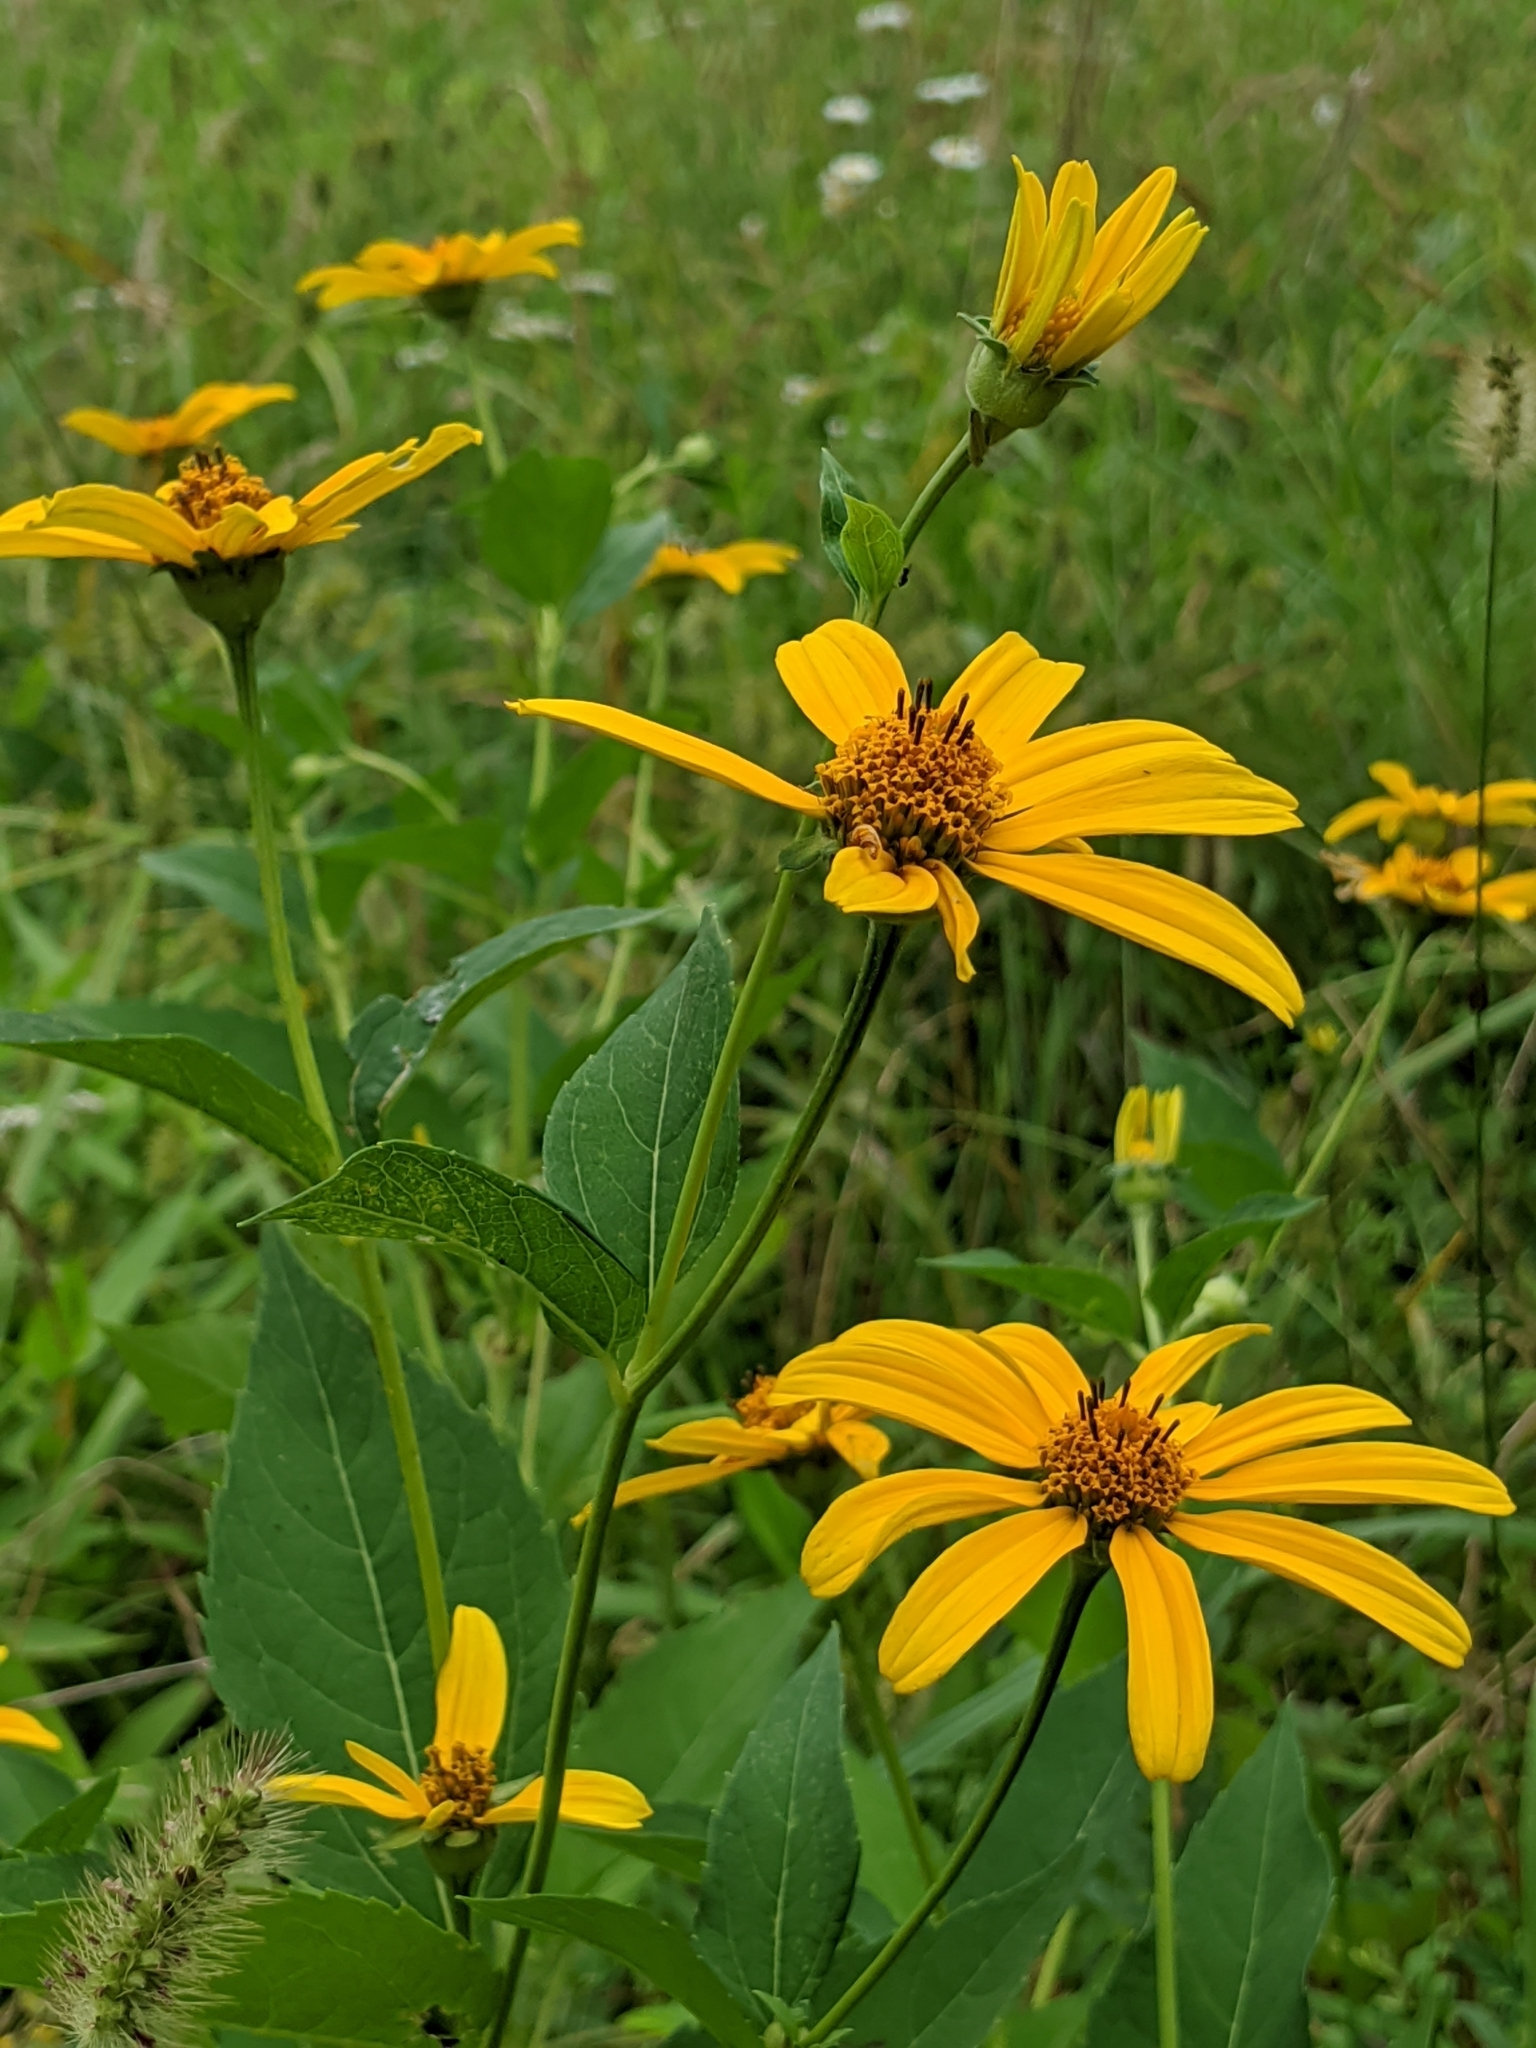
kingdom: Plantae
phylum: Tracheophyta
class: Magnoliopsida
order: Asterales
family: Asteraceae
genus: Heliopsis
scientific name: Heliopsis helianthoides
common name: False sunflower
